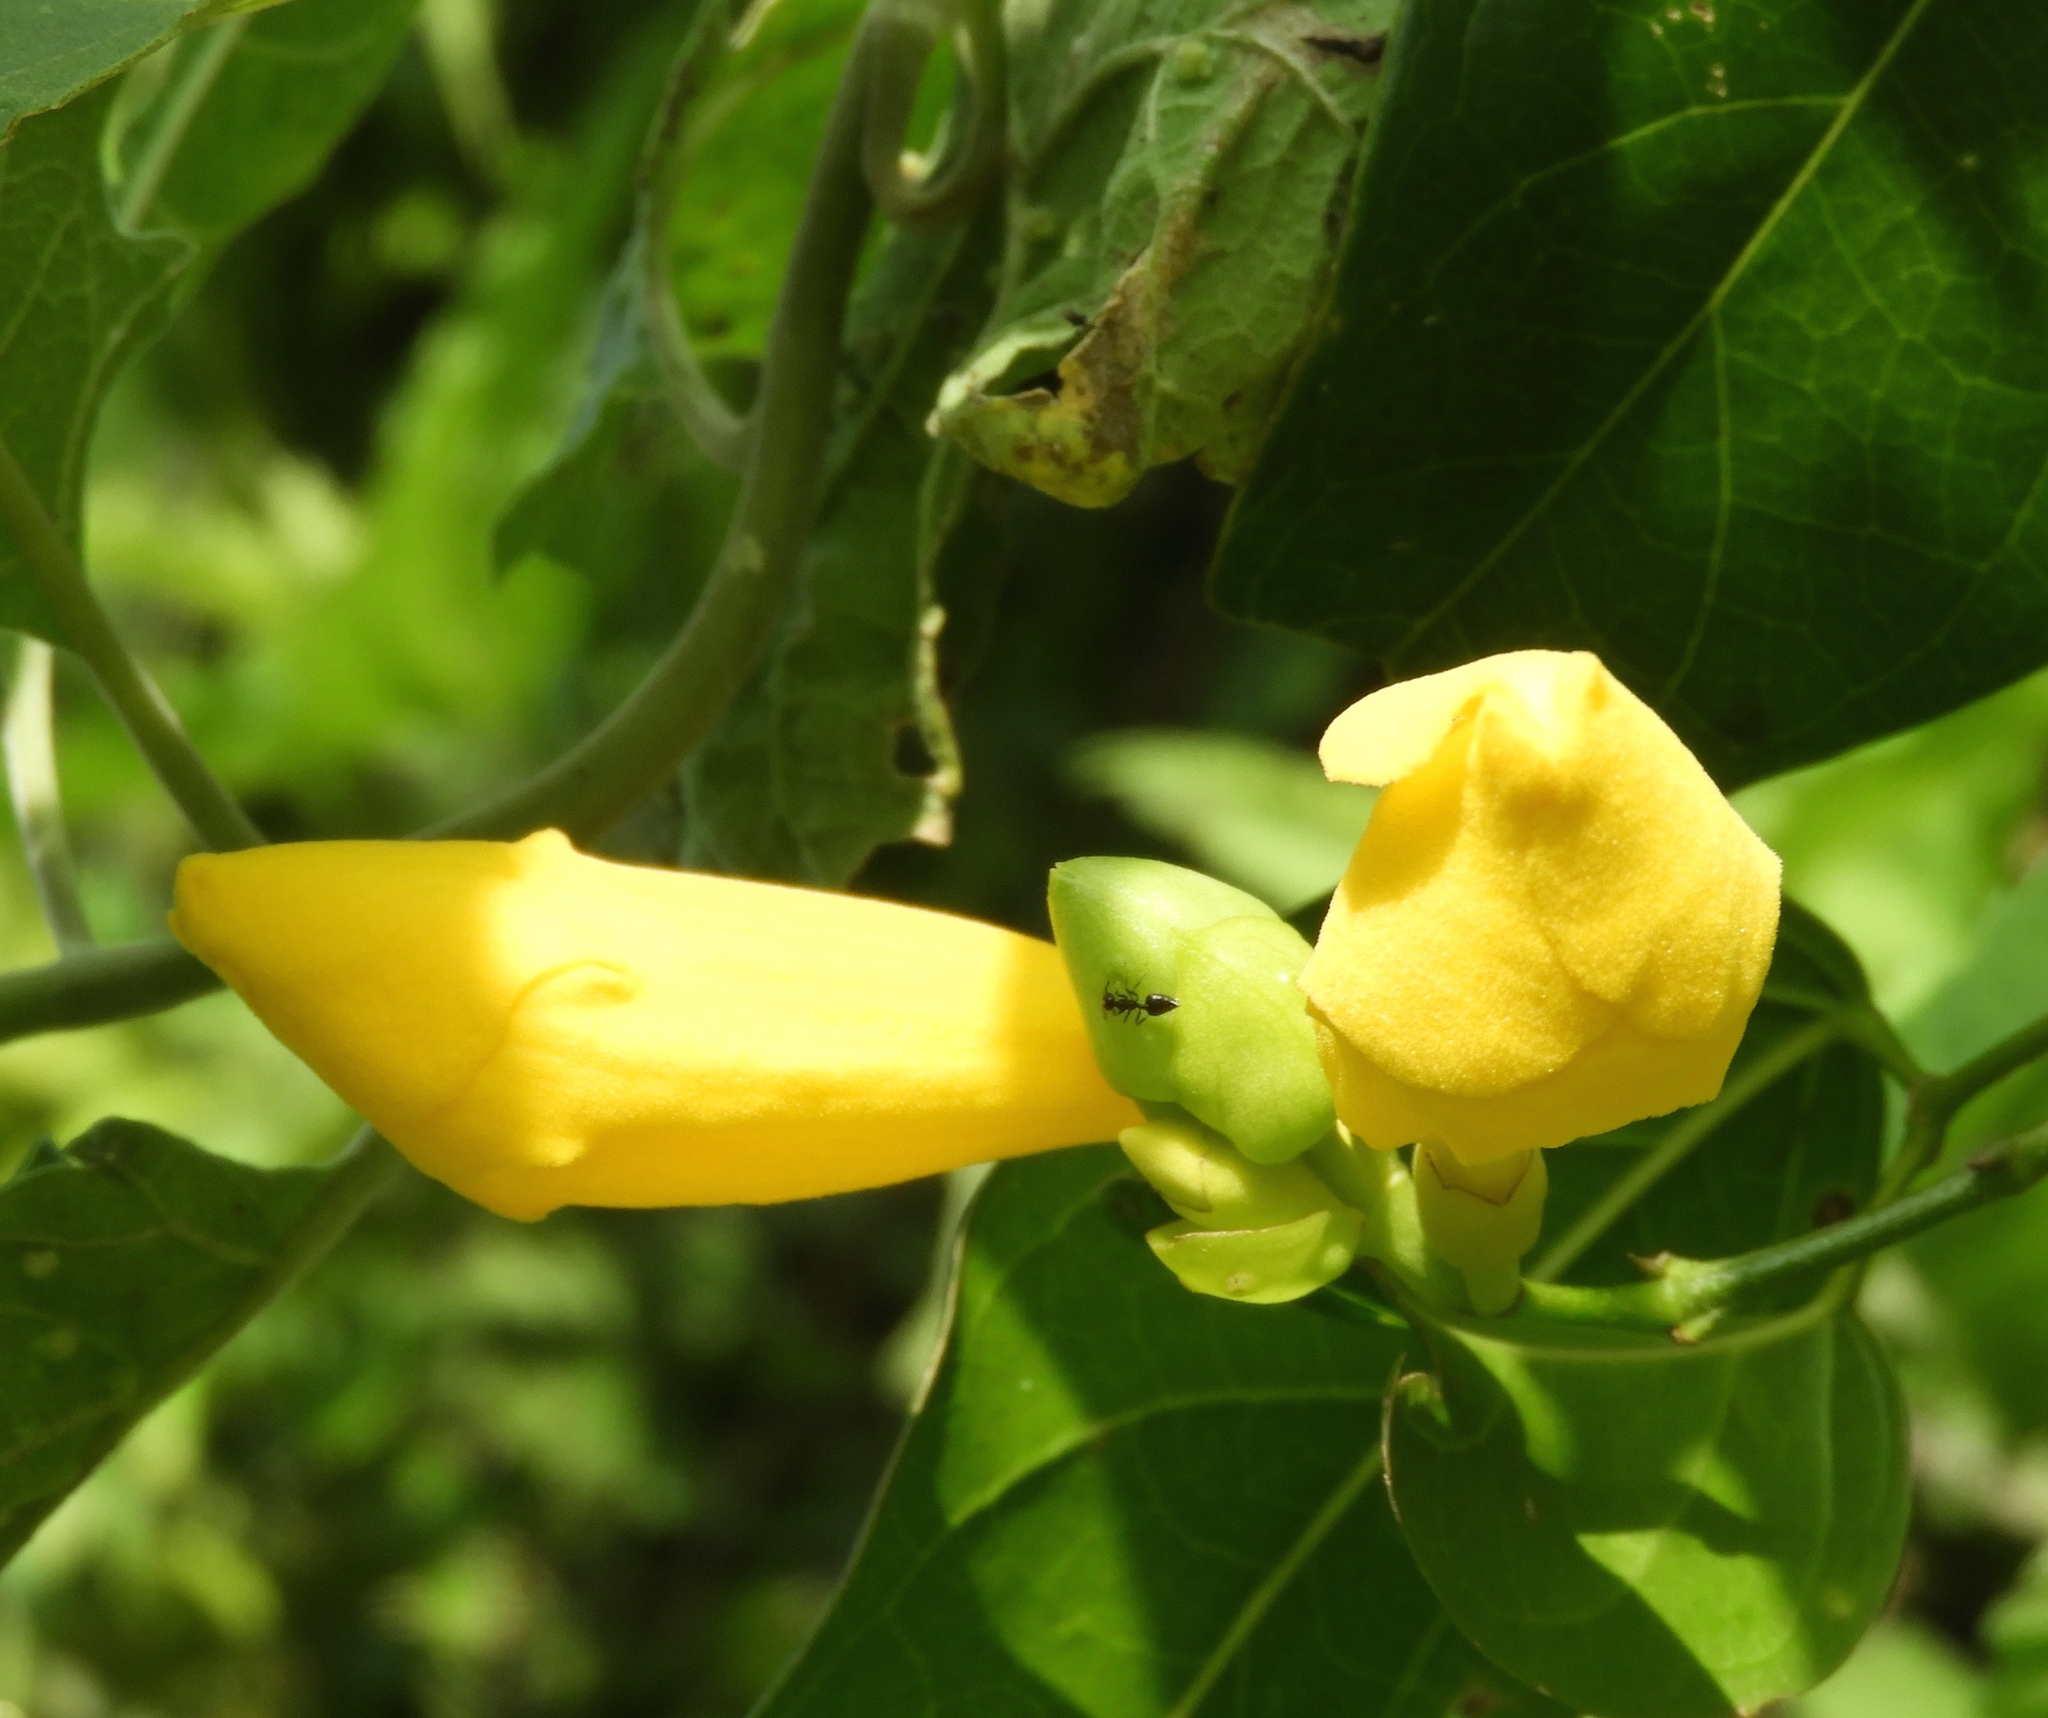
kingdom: Plantae
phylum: Tracheophyta
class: Magnoliopsida
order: Lamiales
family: Bignoniaceae
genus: Adenocalymma
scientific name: Adenocalymma inundatum
